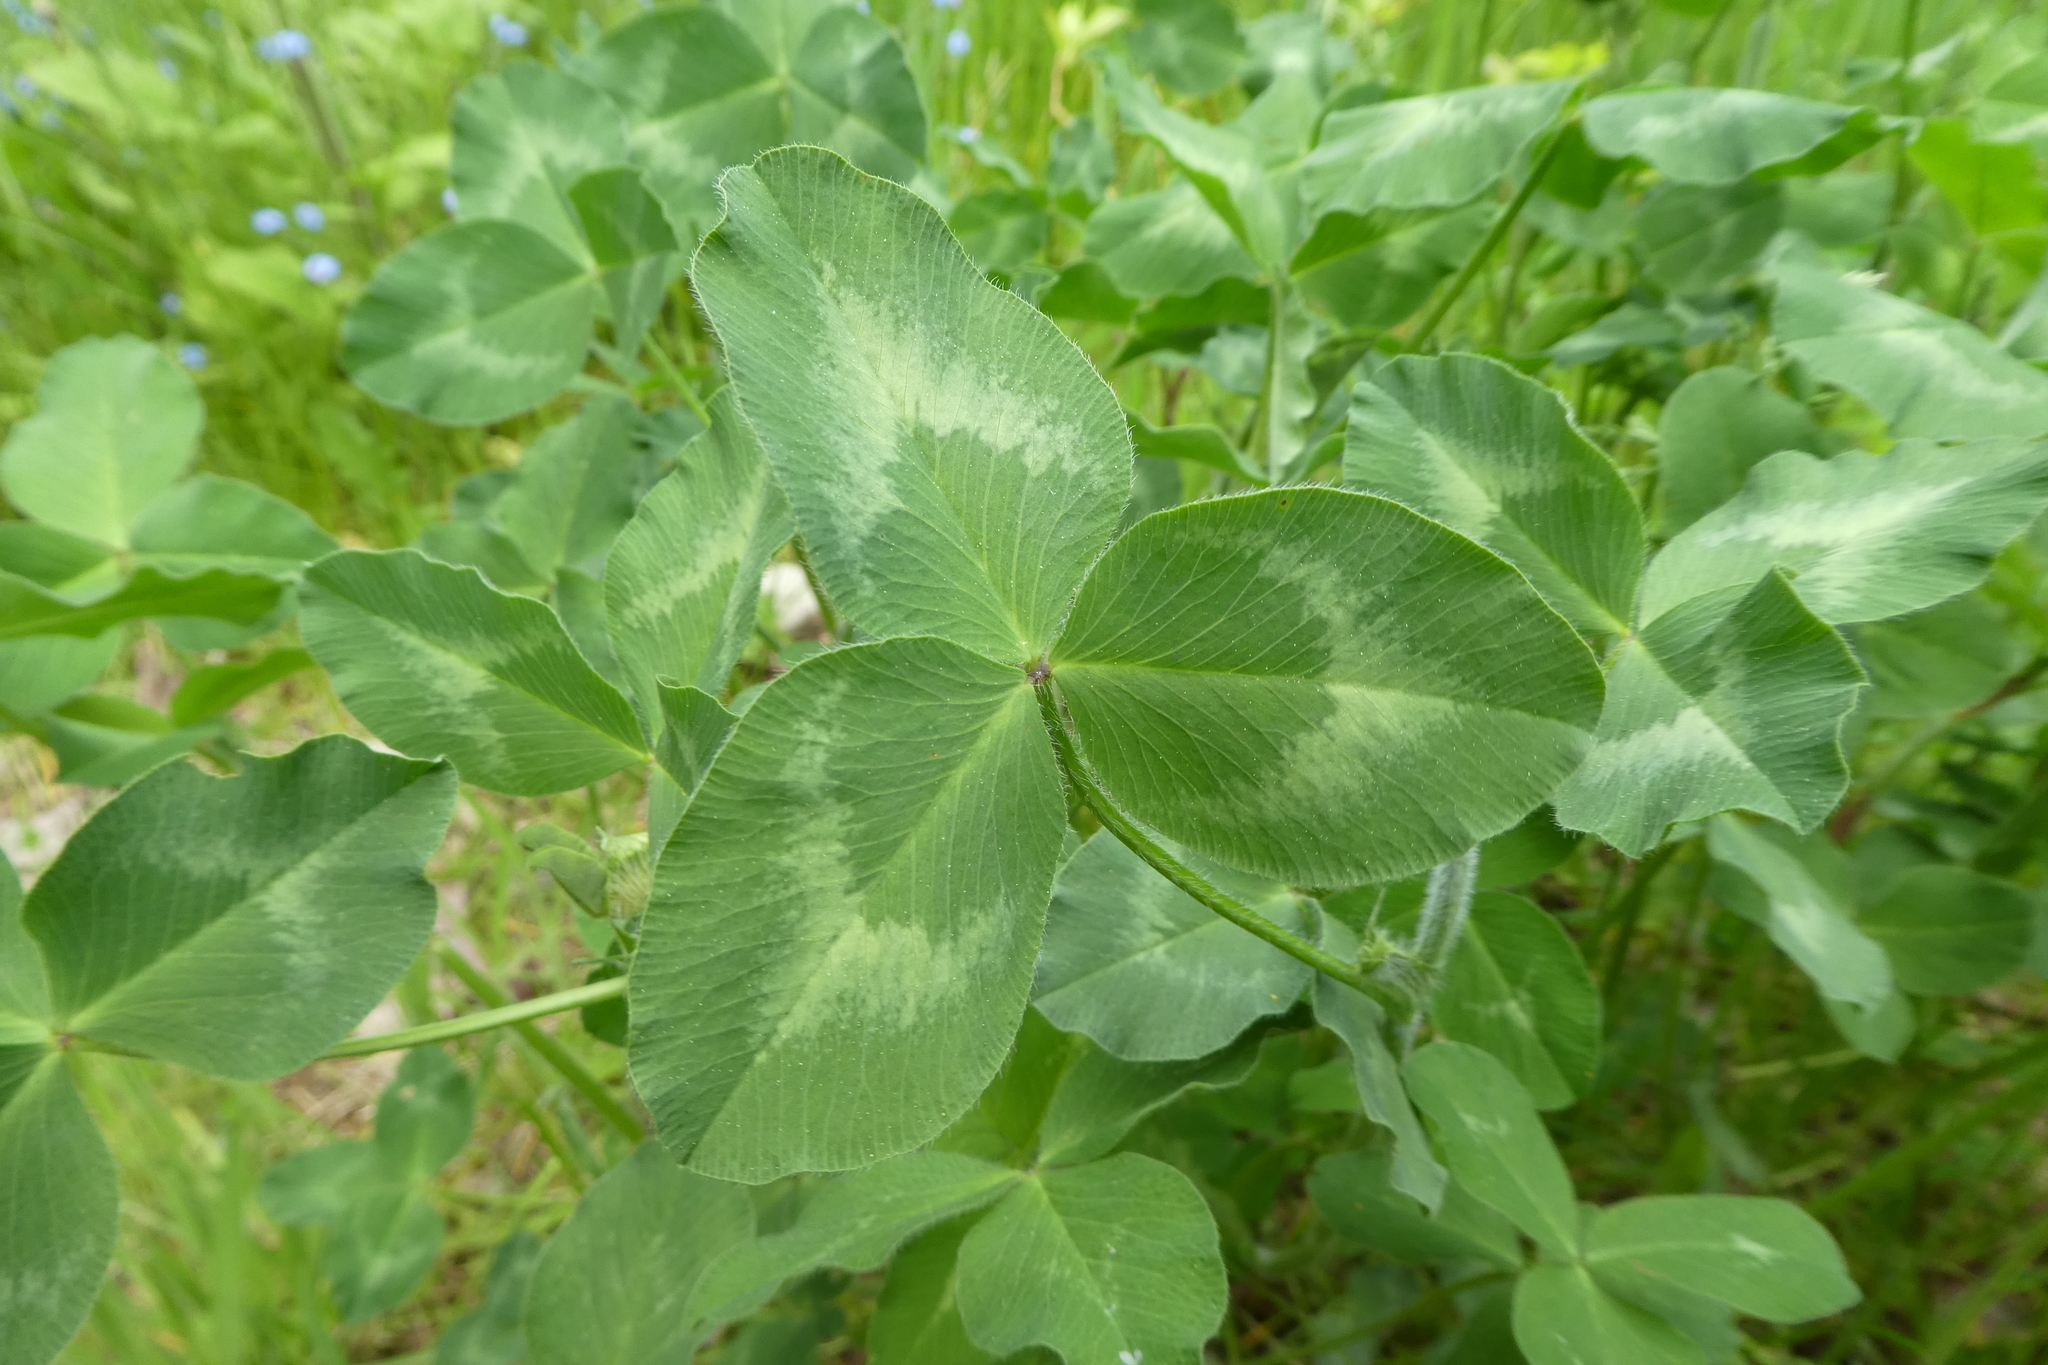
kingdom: Plantae
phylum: Tracheophyta
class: Magnoliopsida
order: Fabales
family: Fabaceae
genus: Trifolium
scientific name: Trifolium pratense
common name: Red clover
